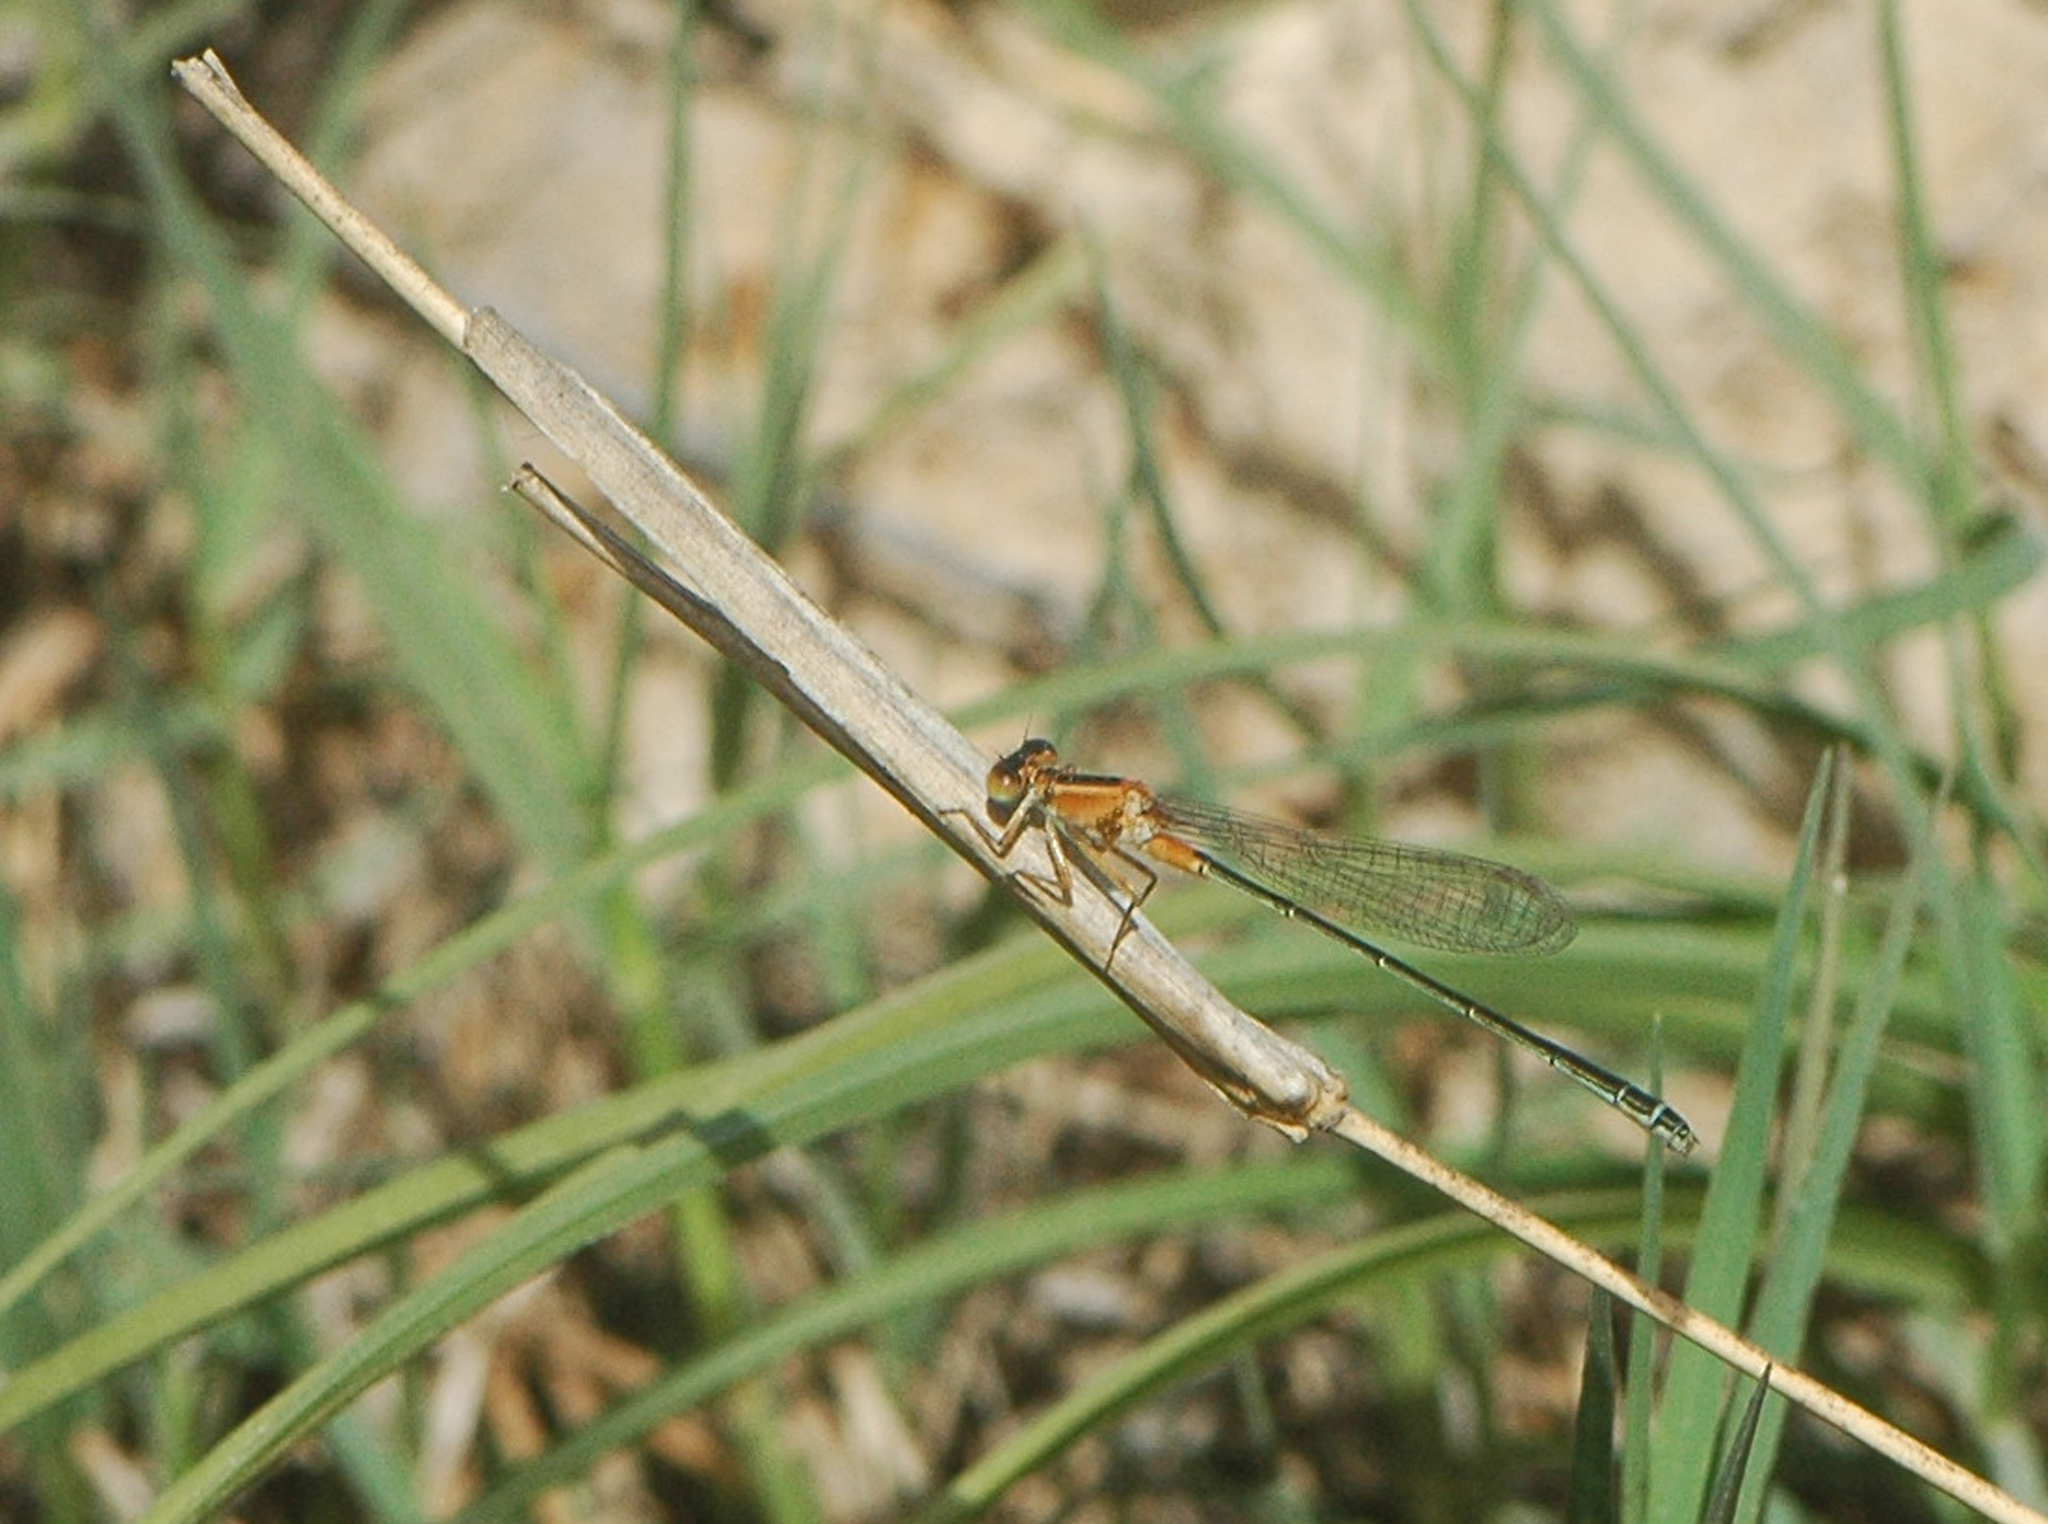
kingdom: Animalia
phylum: Arthropoda
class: Insecta
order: Odonata
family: Coenagrionidae
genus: Ischnura
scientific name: Ischnura senegalensis
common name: Tropical bluetail
